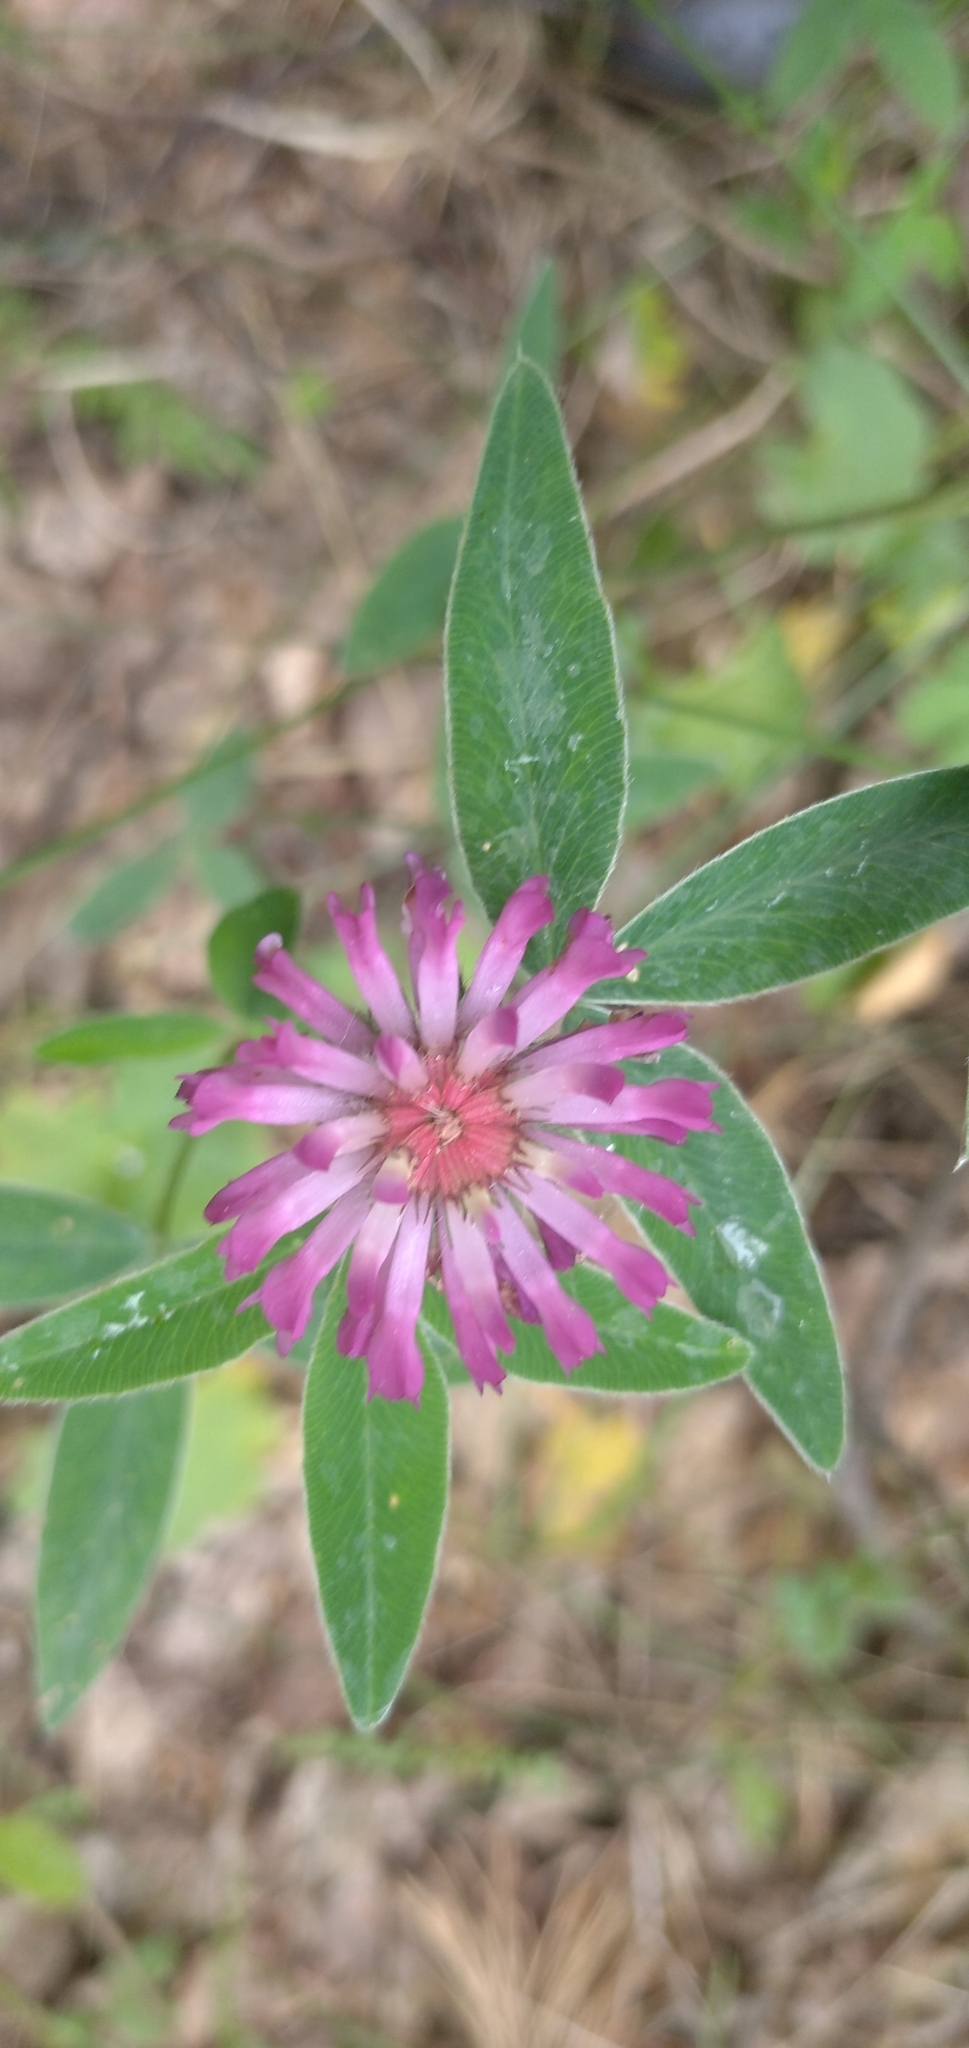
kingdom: Plantae
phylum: Tracheophyta
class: Magnoliopsida
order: Fabales
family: Fabaceae
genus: Trifolium
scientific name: Trifolium medium
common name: Zigzag clover
